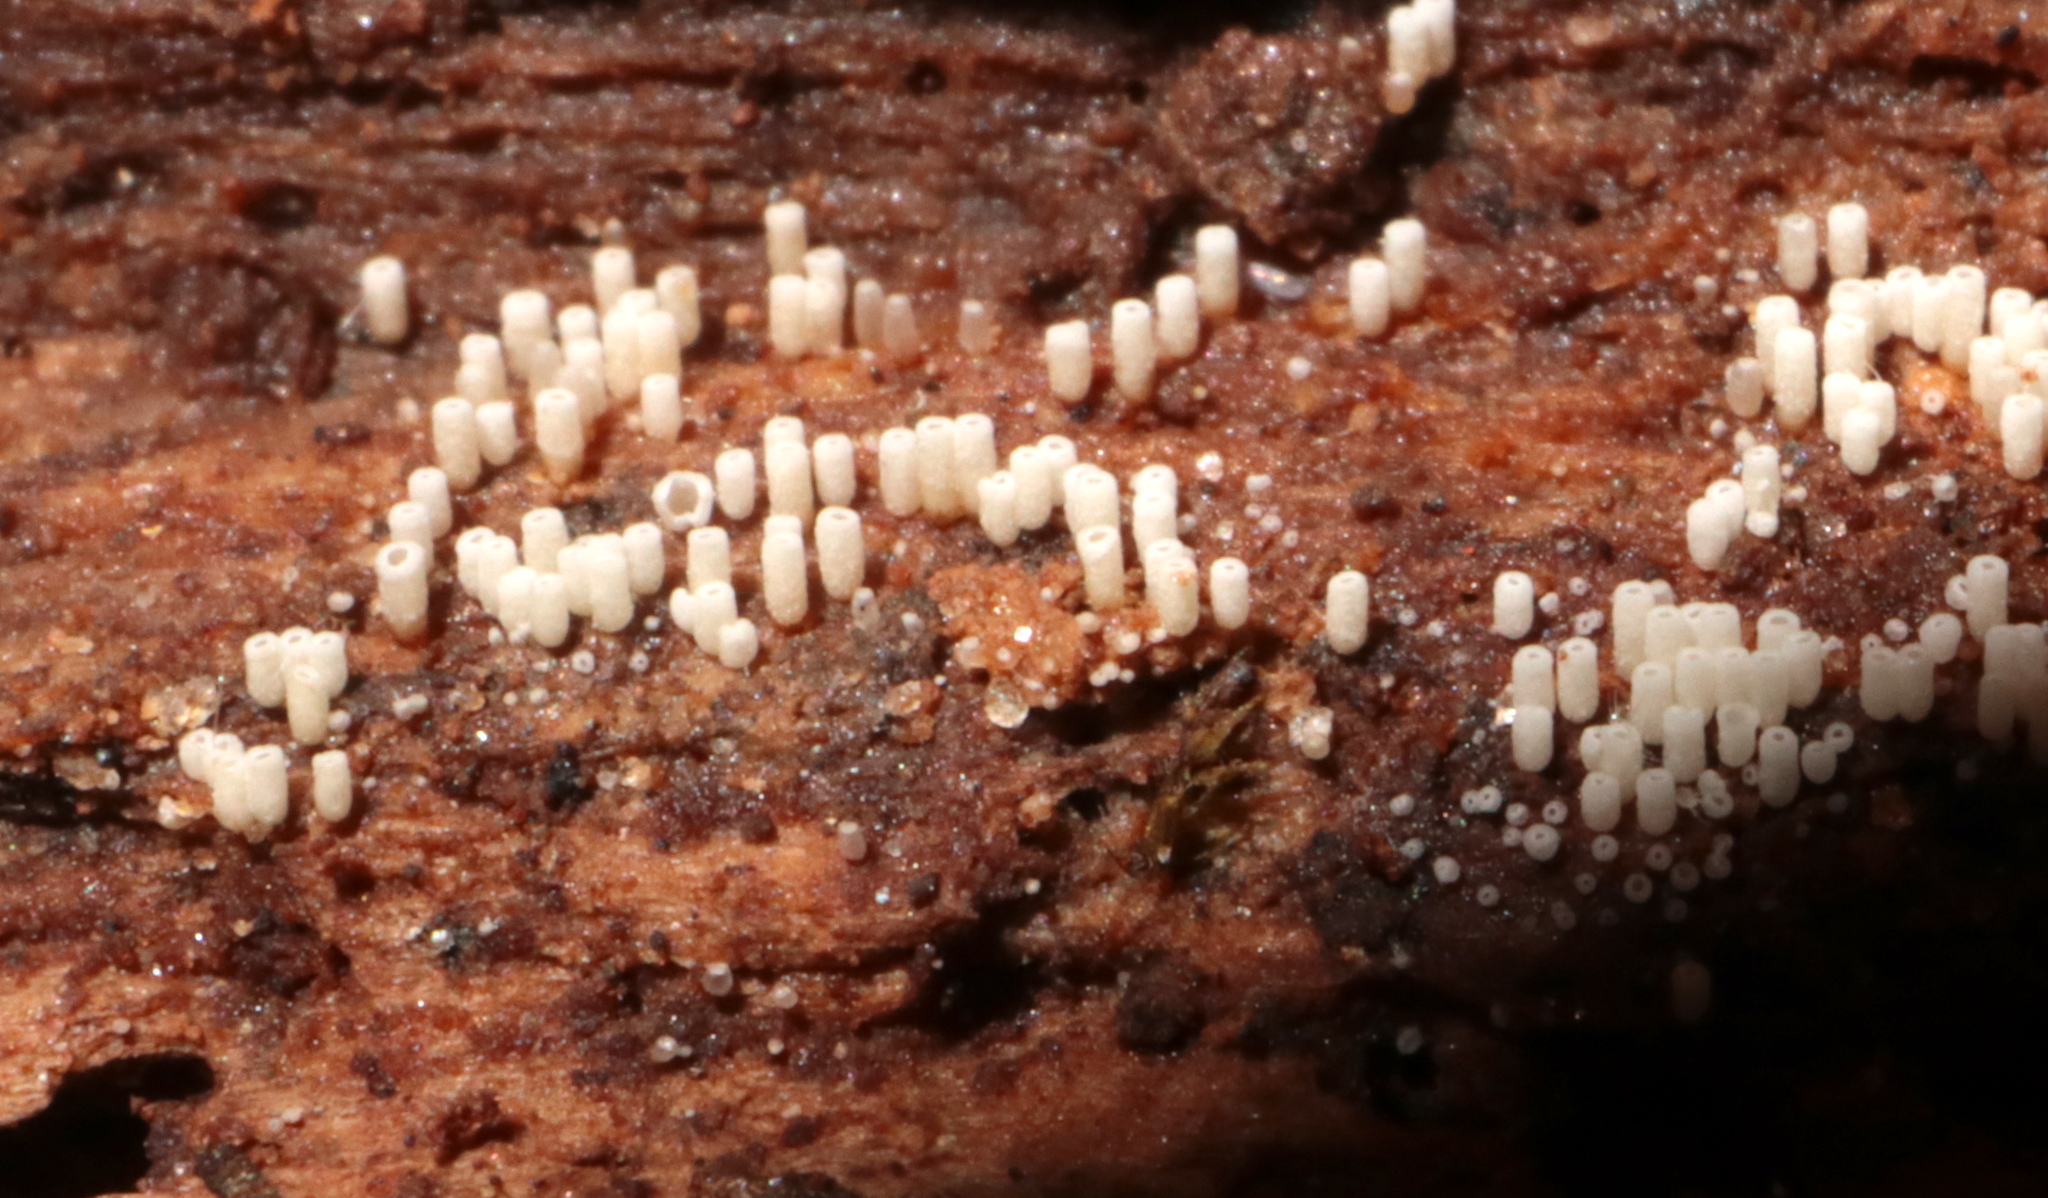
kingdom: Fungi
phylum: Basidiomycota
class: Agaricomycetes
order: Agaricales
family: Marasmiaceae
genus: Henningsomyces
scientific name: Henningsomyces candidus
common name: White tubelet
